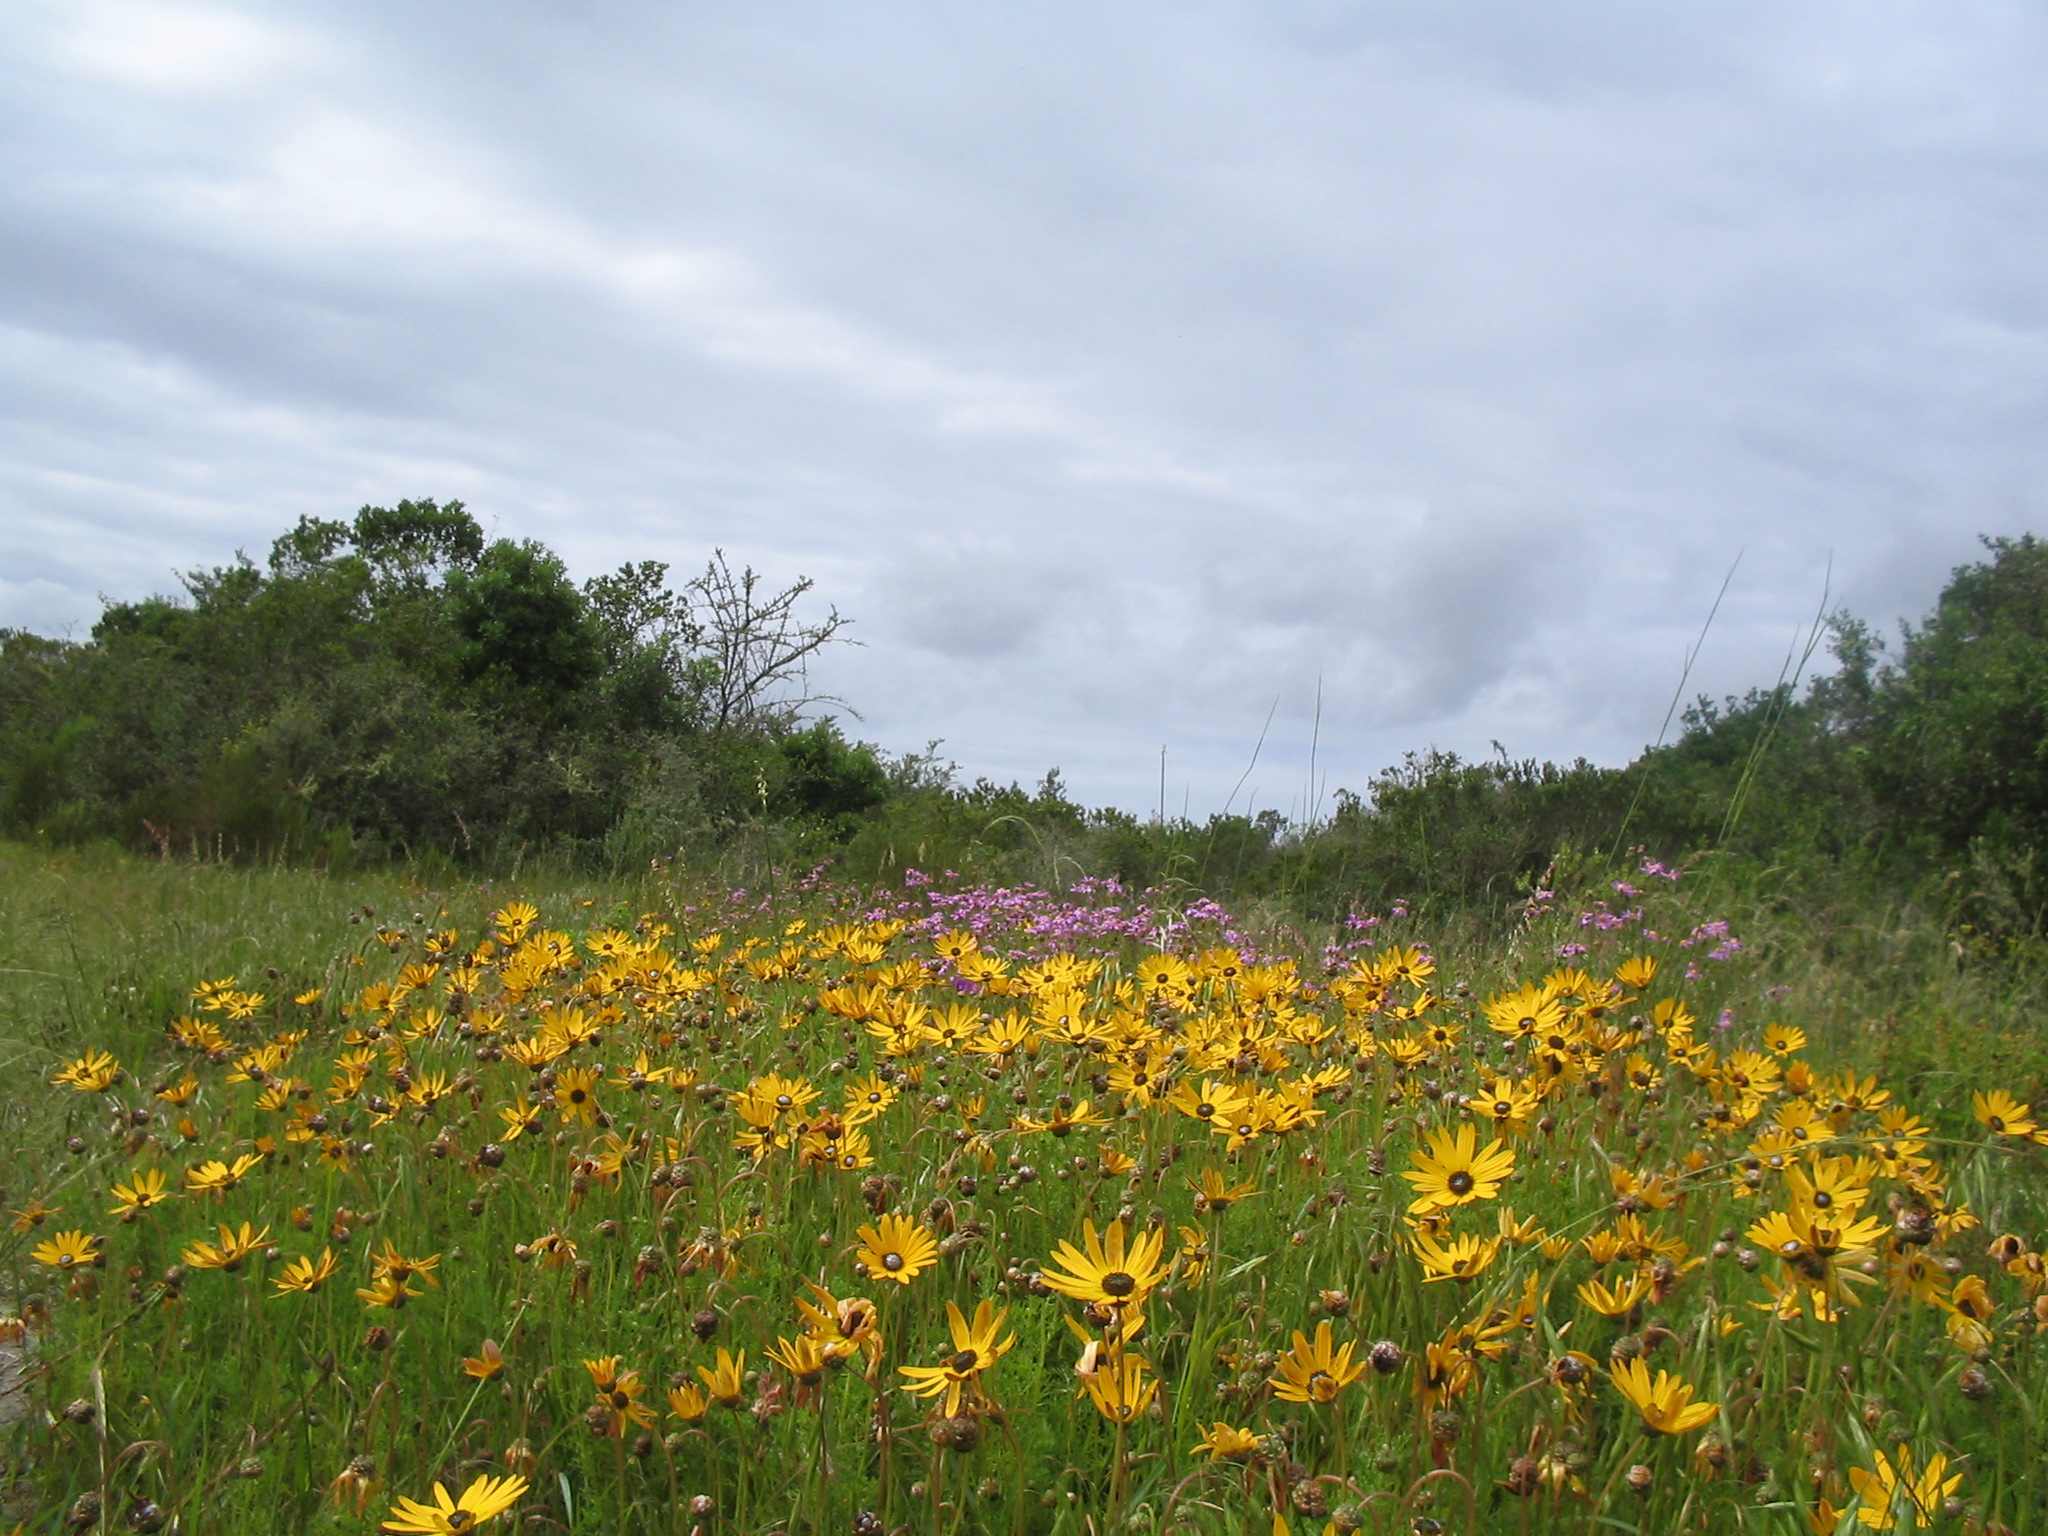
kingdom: Plantae
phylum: Tracheophyta
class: Magnoliopsida
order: Asterales
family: Asteraceae
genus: Ursinia
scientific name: Ursinia chrysanthemoides
